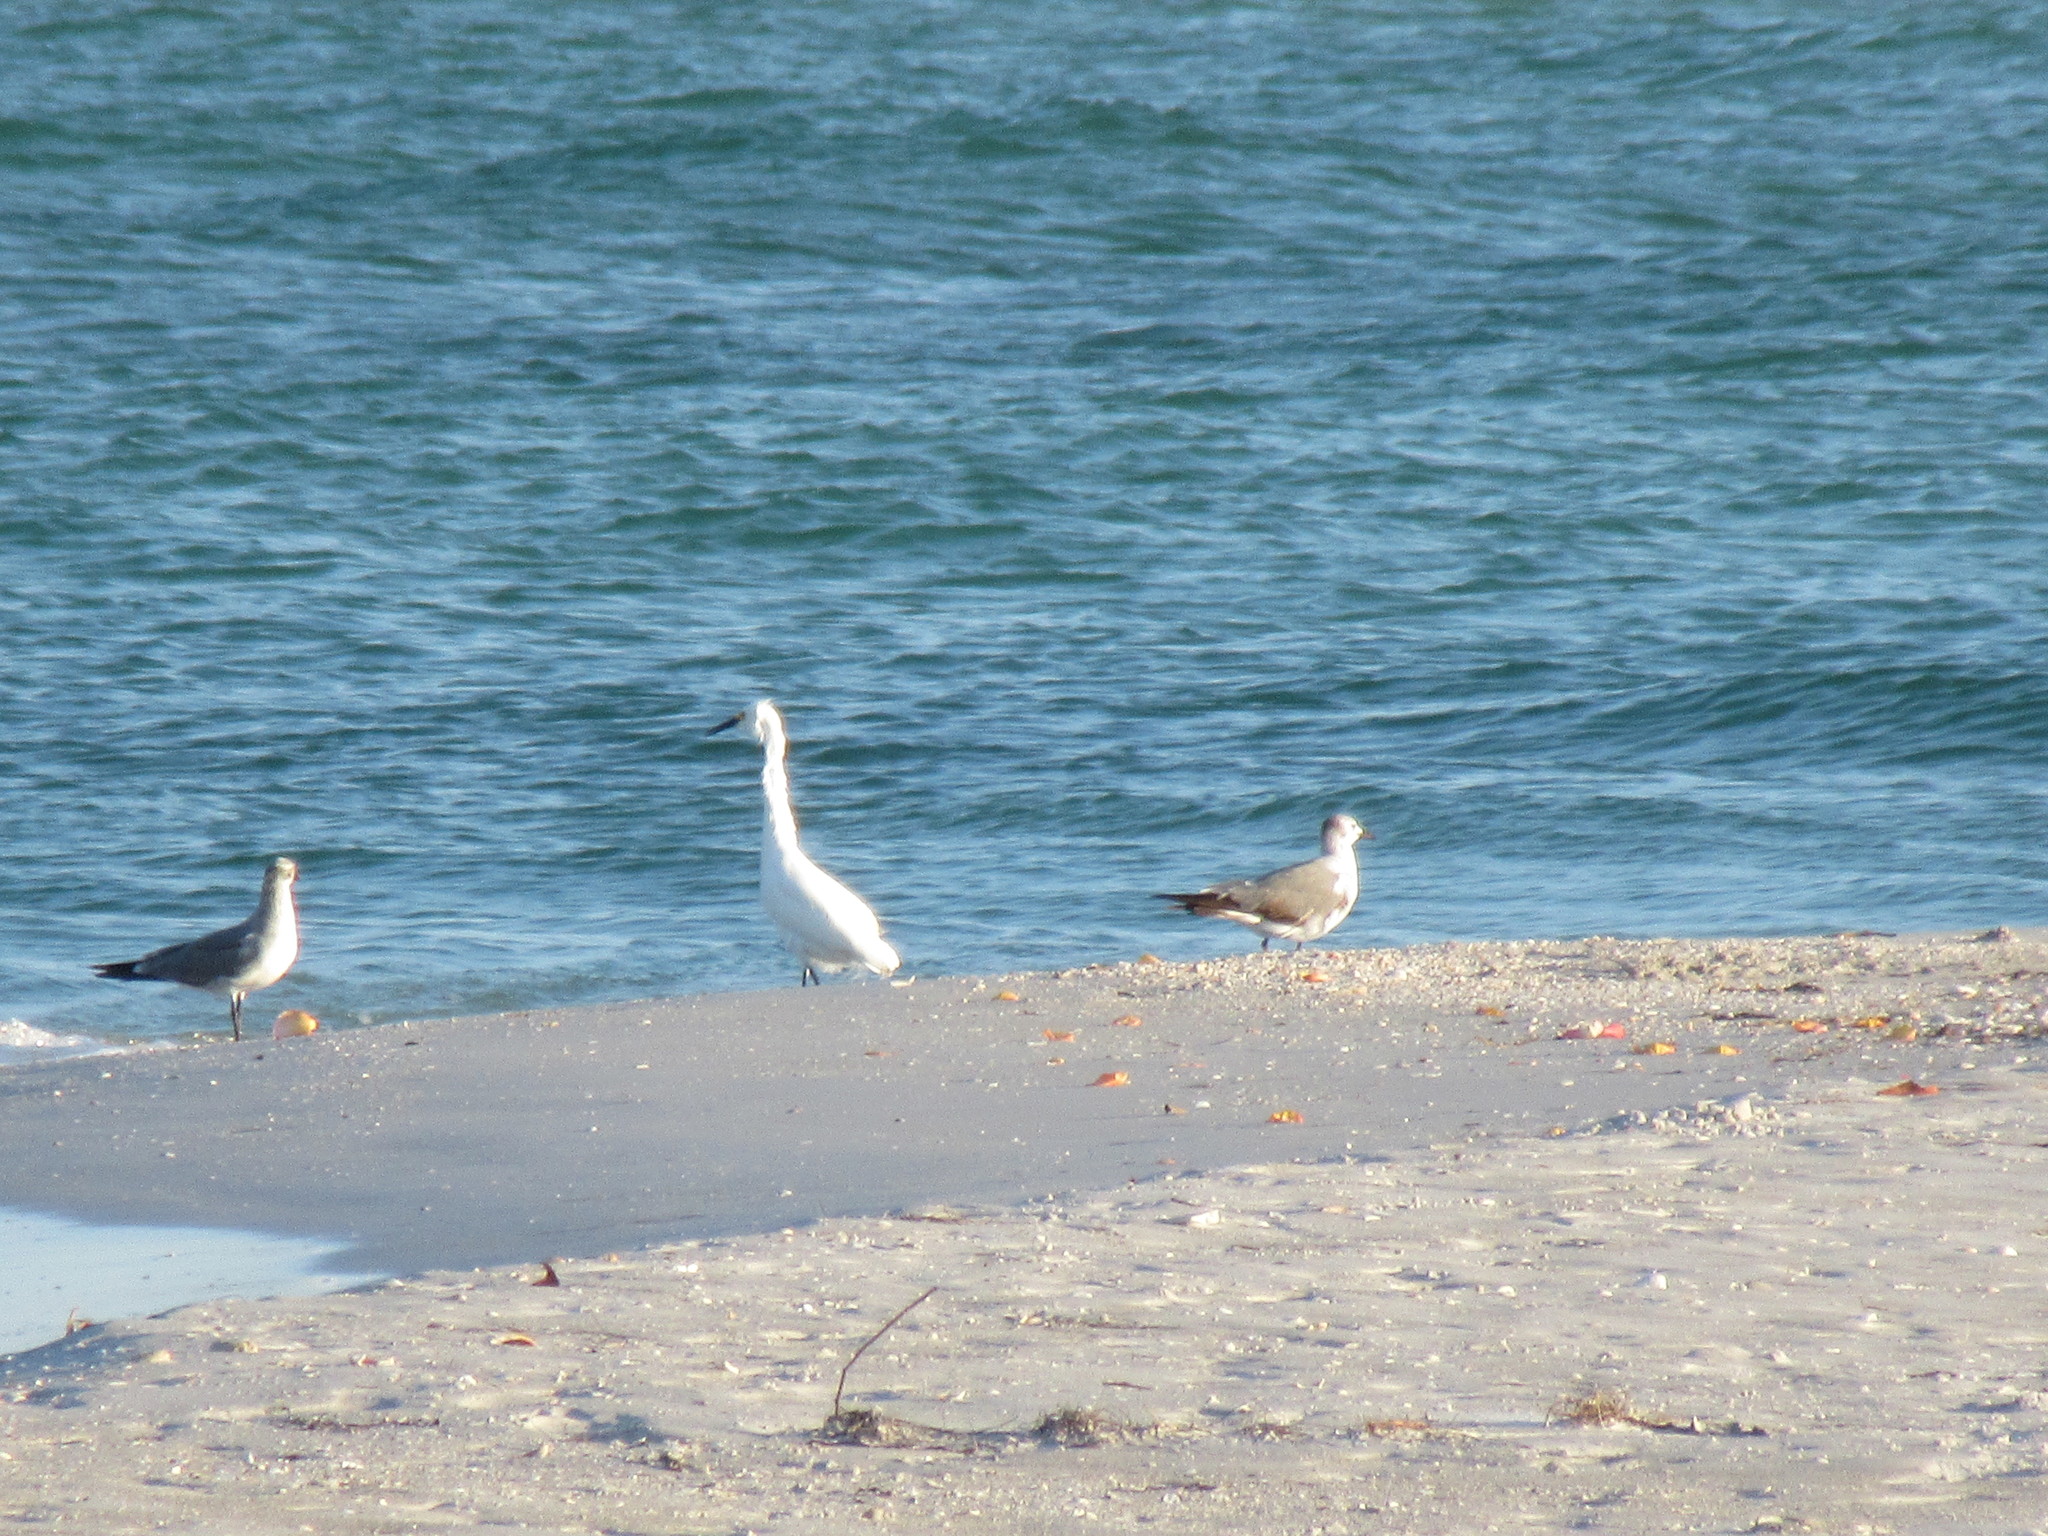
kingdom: Animalia
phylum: Chordata
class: Aves
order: Pelecaniformes
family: Ardeidae
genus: Egretta
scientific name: Egretta thula
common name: Snowy egret
